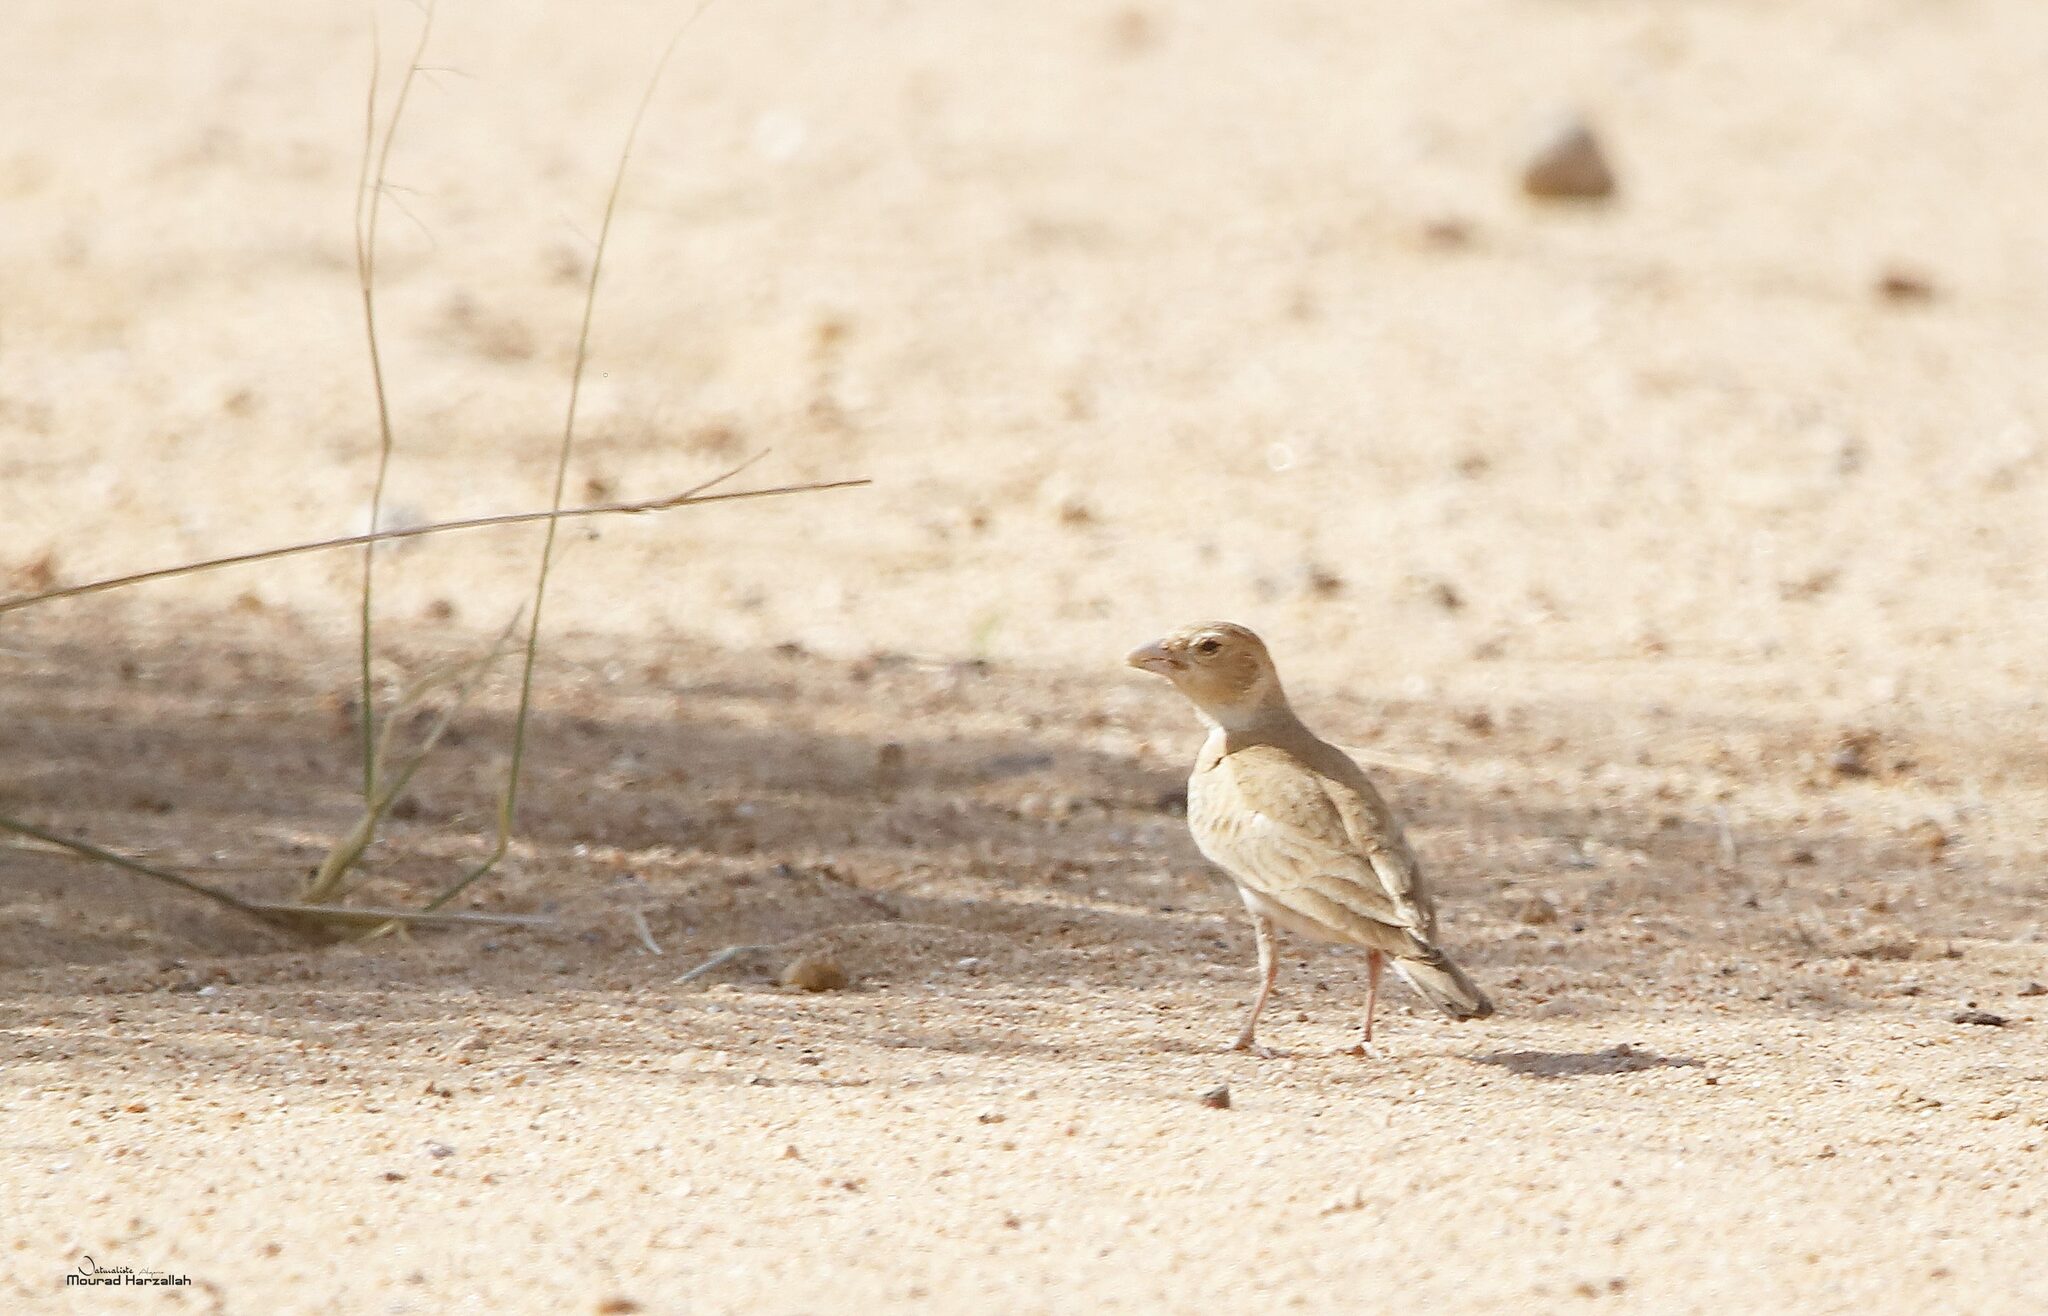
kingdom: Animalia
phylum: Chordata
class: Aves
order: Passeriformes
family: Alaudidae
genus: Eremopterix
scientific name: Eremopterix nigriceps
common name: Black-crowned sparrow-lark
